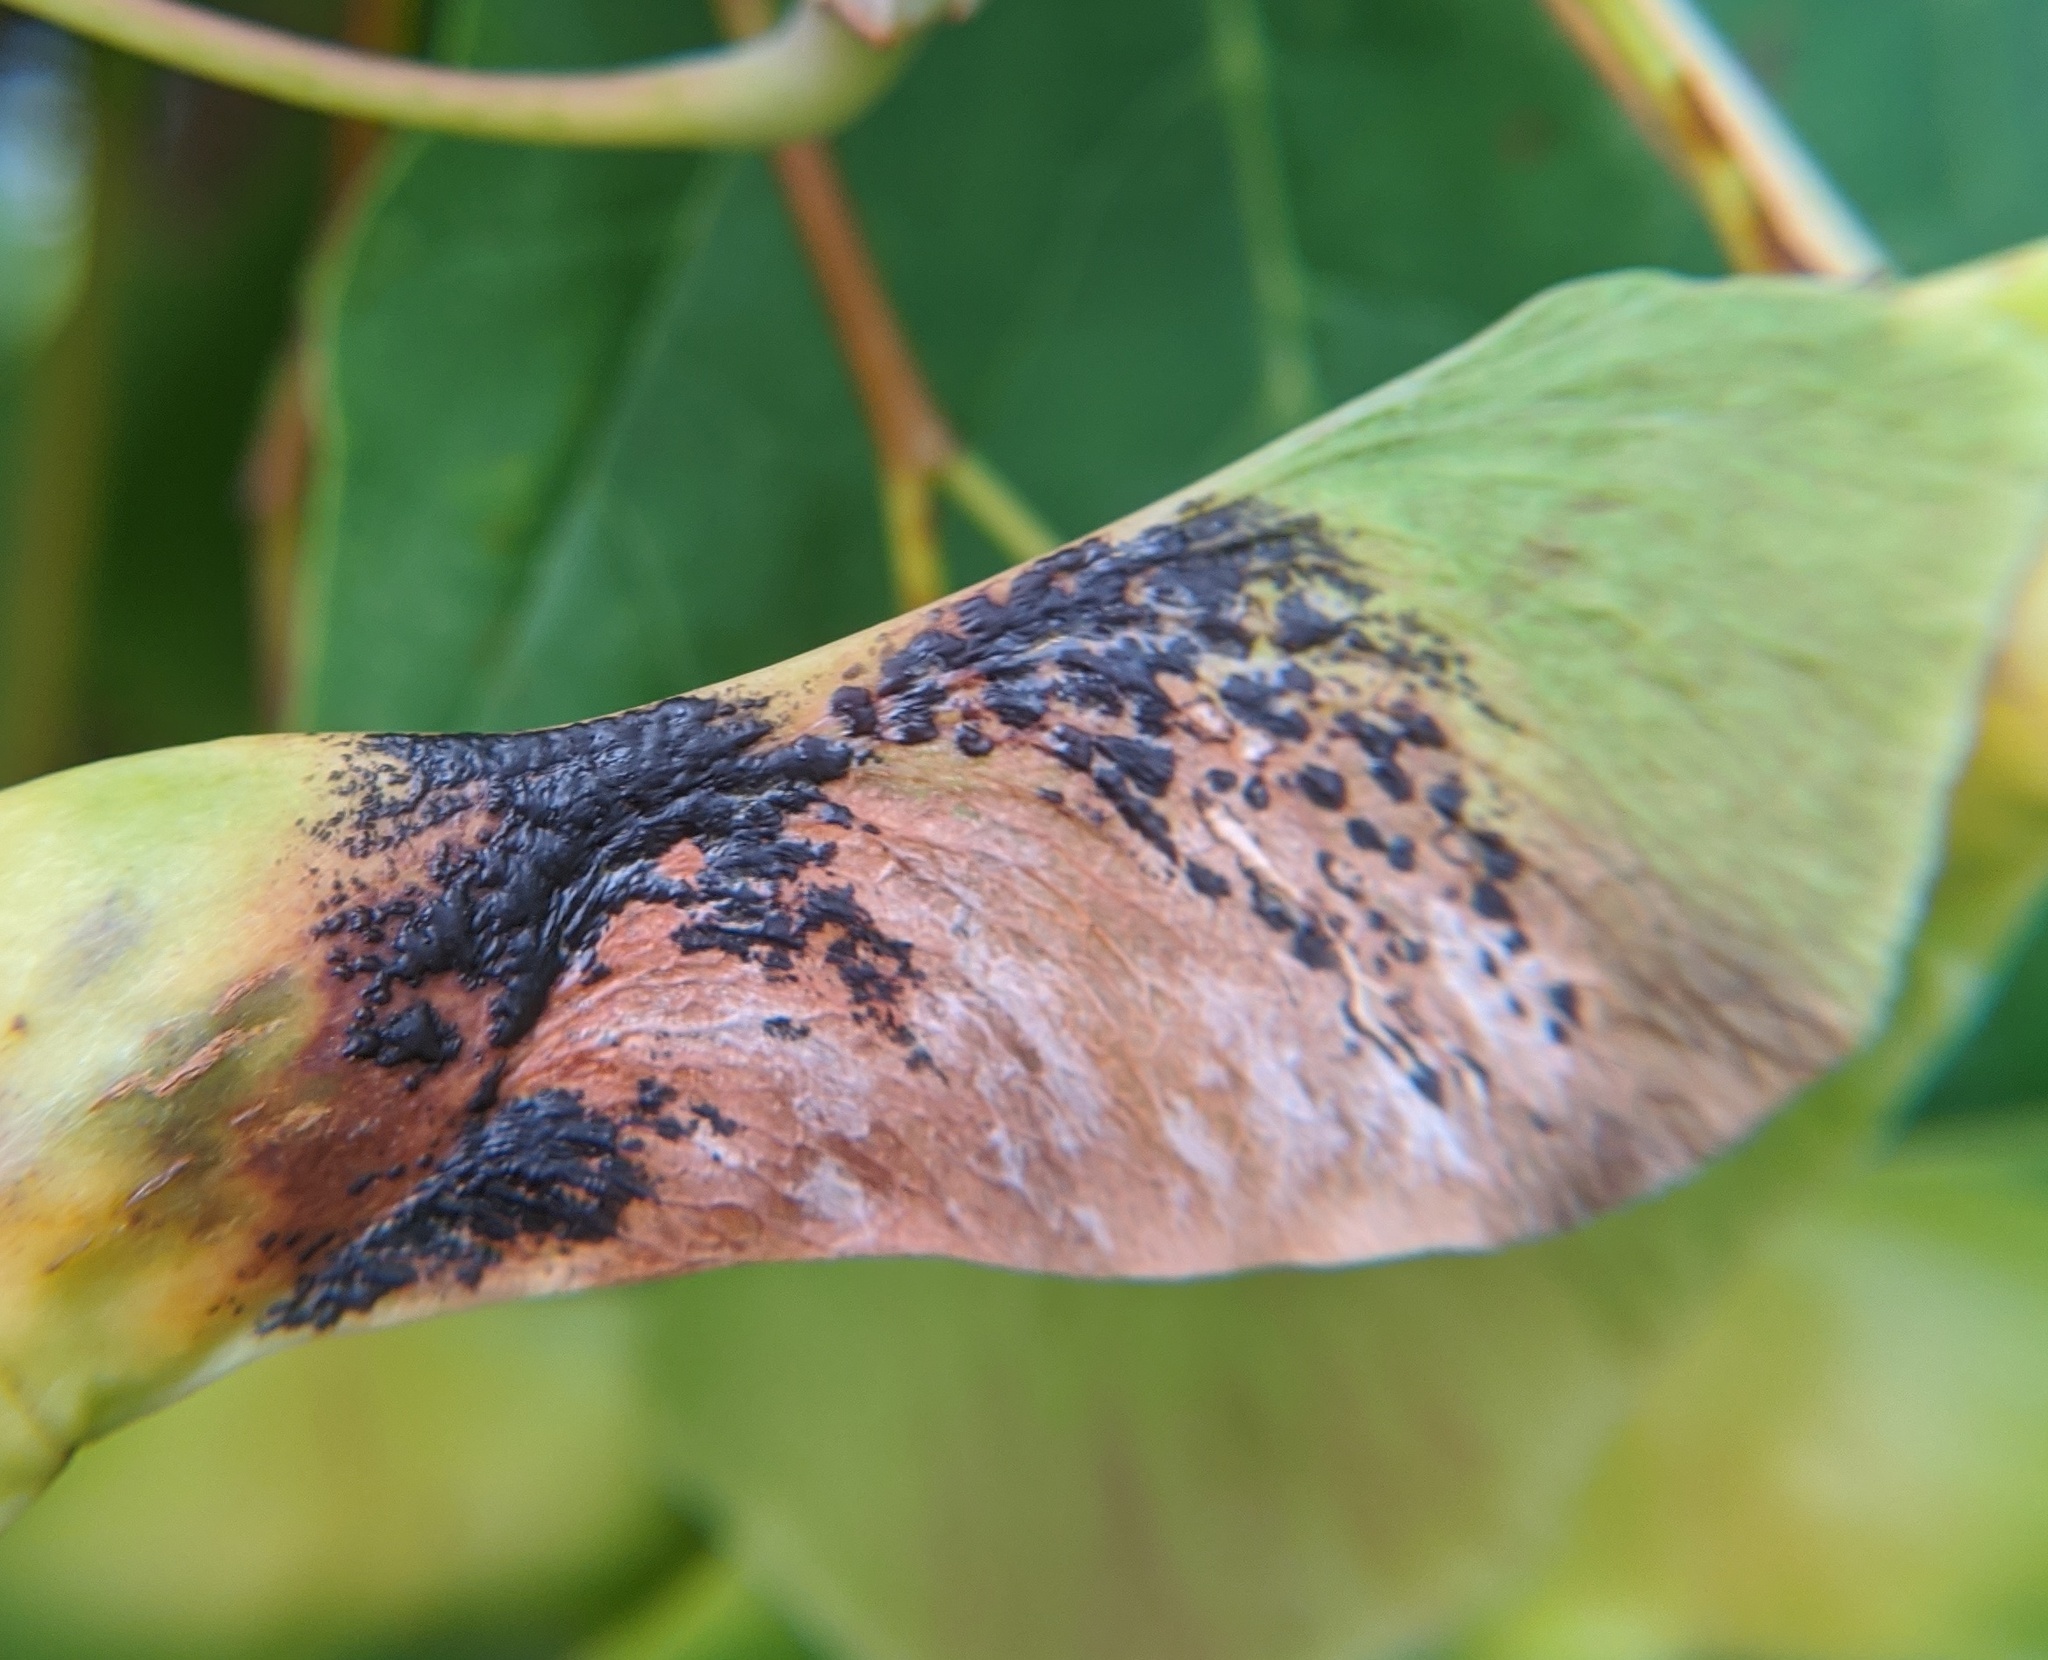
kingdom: Fungi
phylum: Ascomycota
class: Leotiomycetes
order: Rhytismatales
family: Rhytismataceae
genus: Rhytisma
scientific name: Rhytisma acerinum
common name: European tar spot
